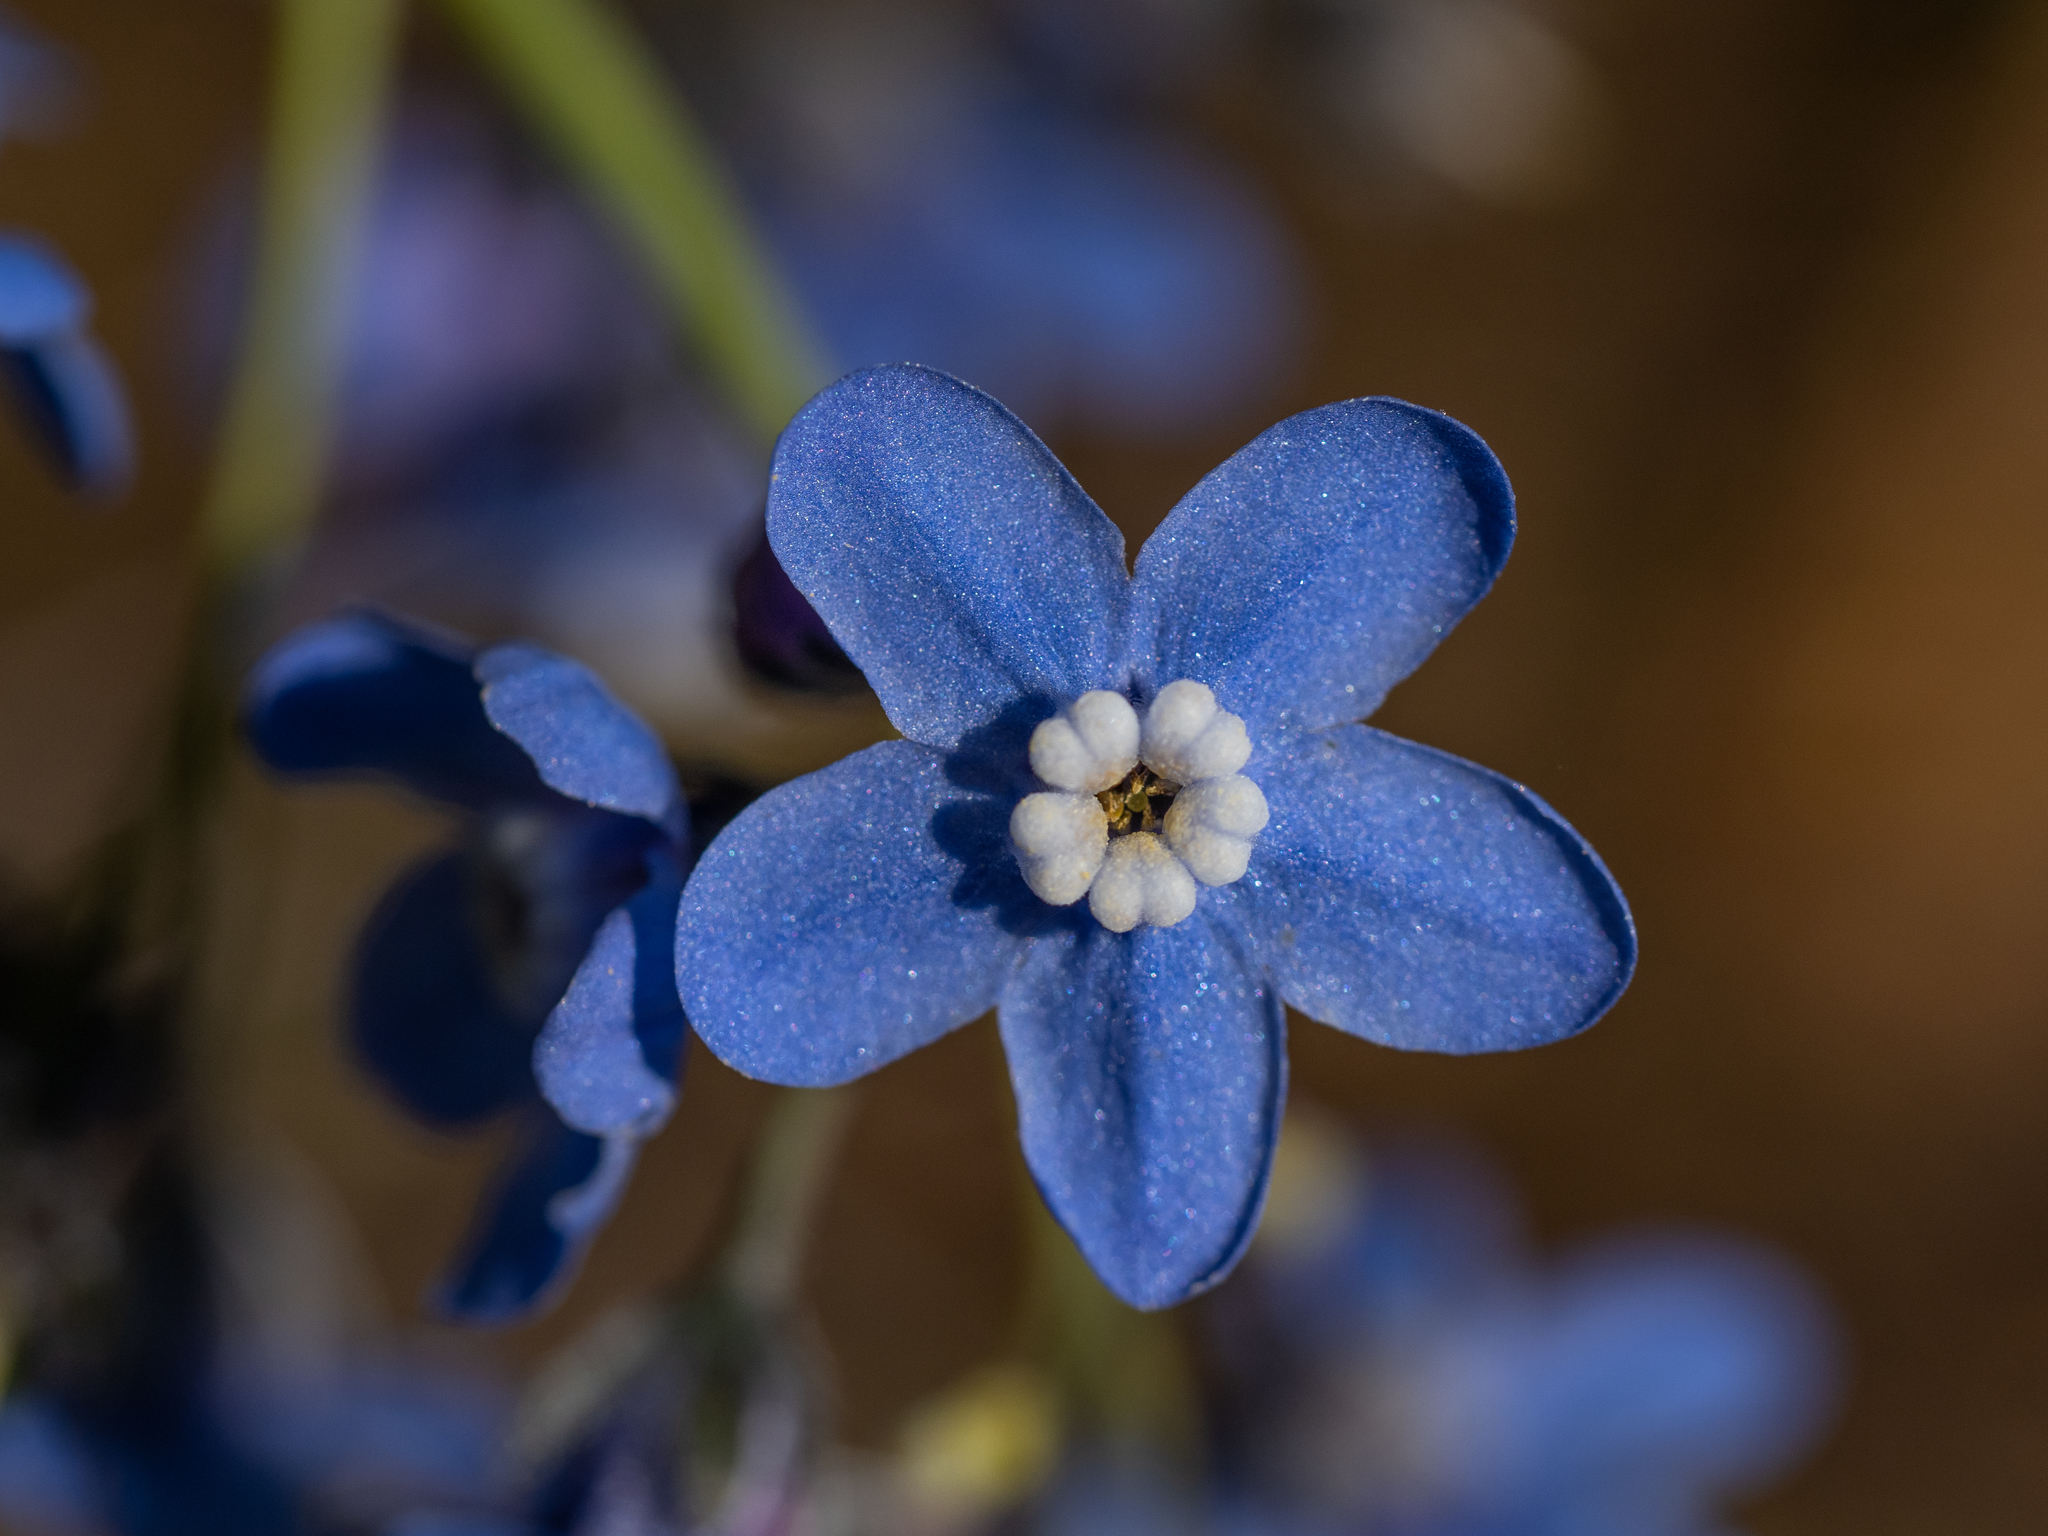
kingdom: Plantae
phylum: Tracheophyta
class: Magnoliopsida
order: Boraginales
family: Boraginaceae
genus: Adelinia
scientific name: Adelinia grande
